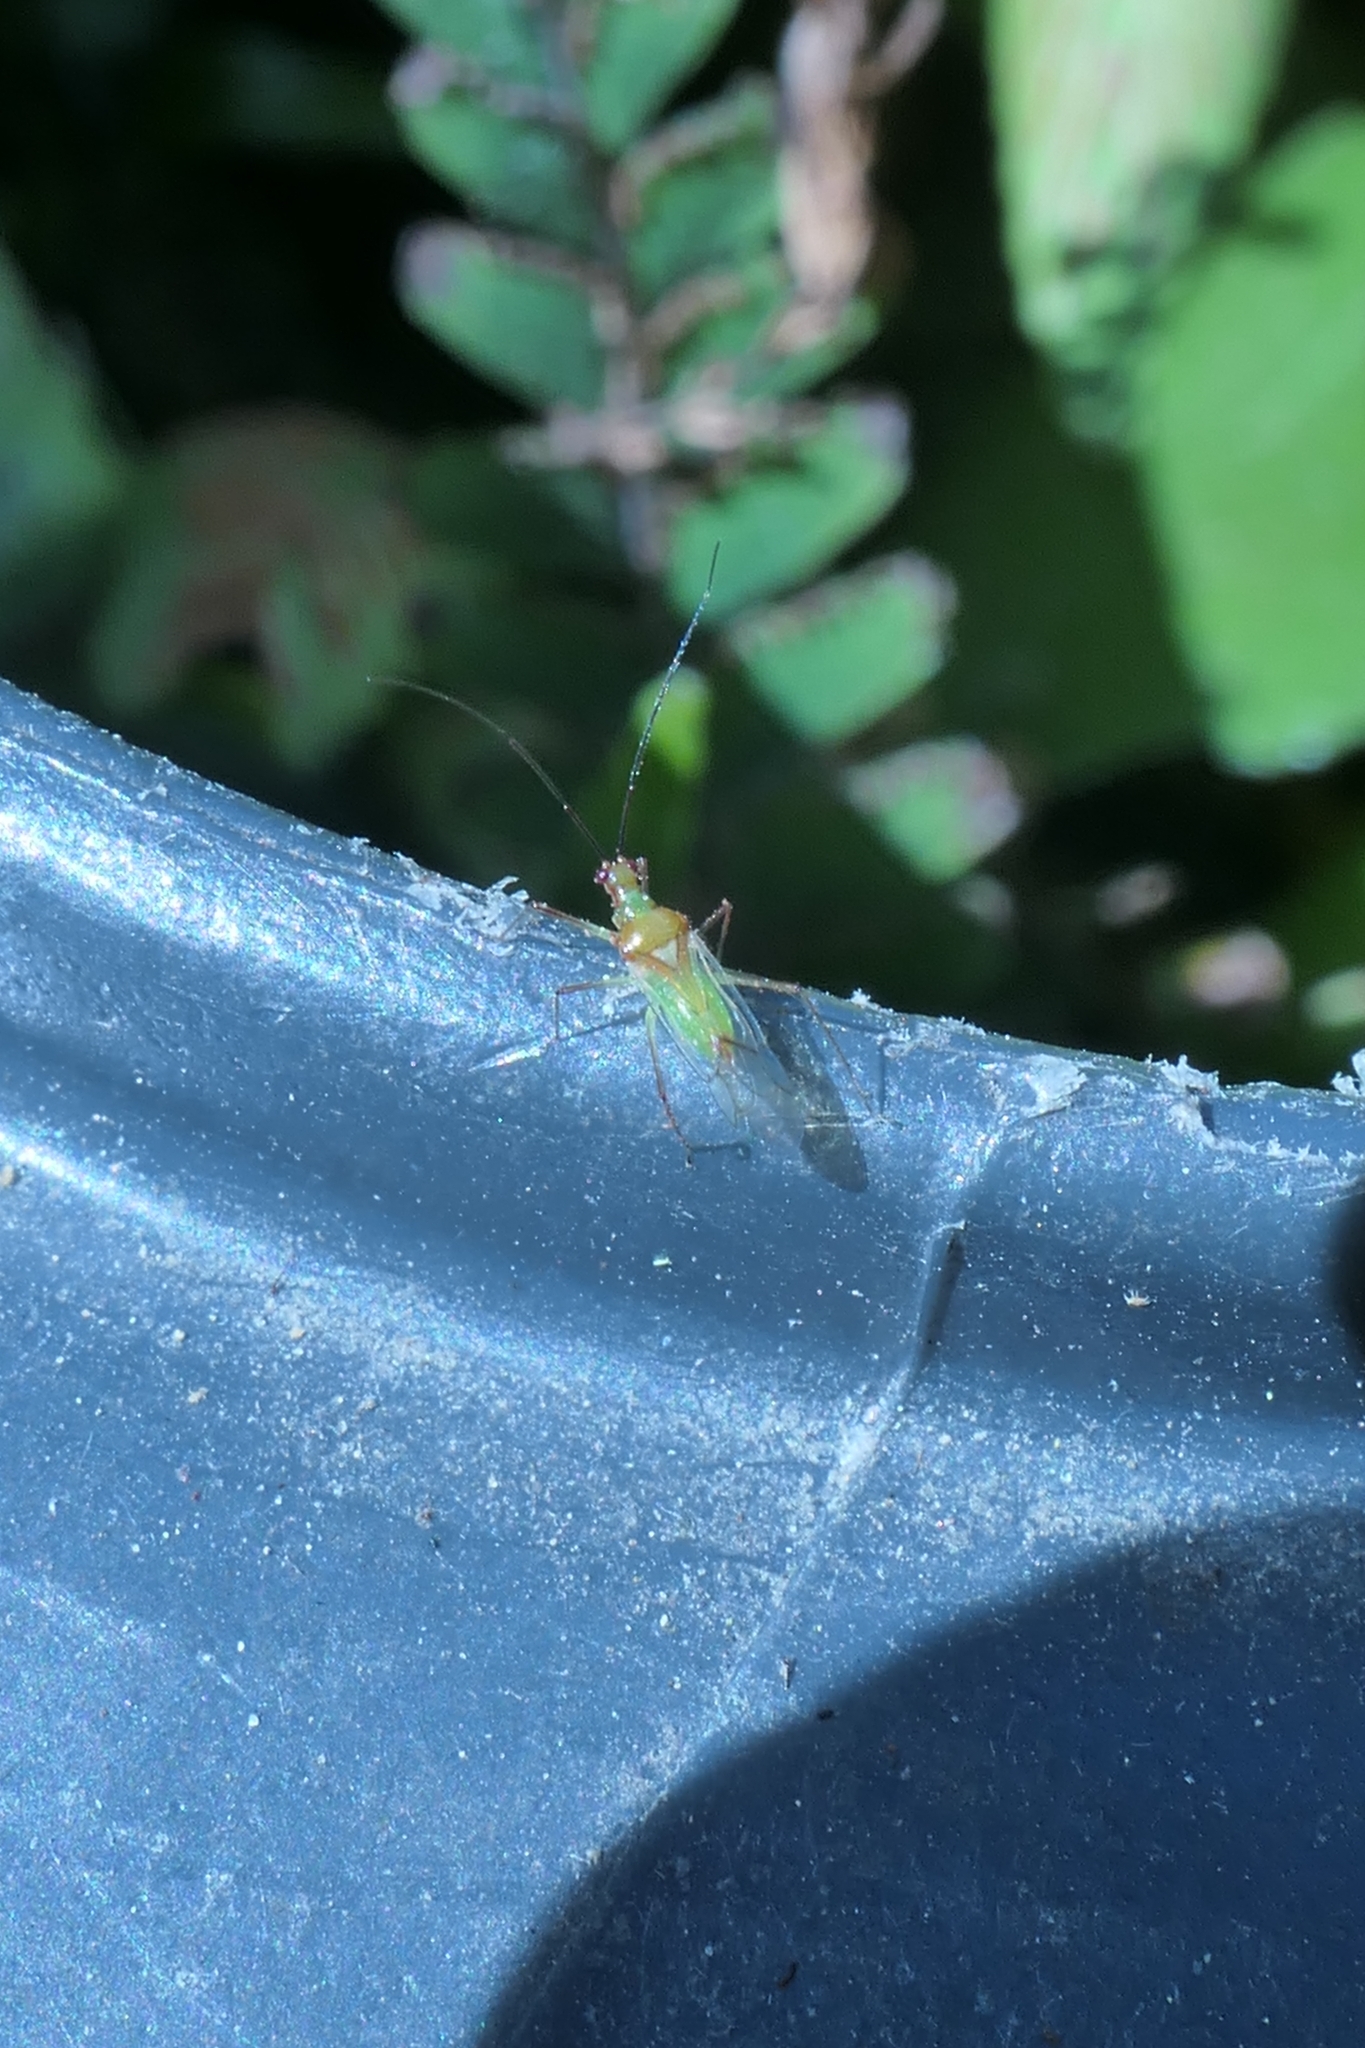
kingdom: Animalia
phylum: Arthropoda
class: Insecta
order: Hemiptera
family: Miridae
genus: Felisacus
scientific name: Felisacus elegantulus
